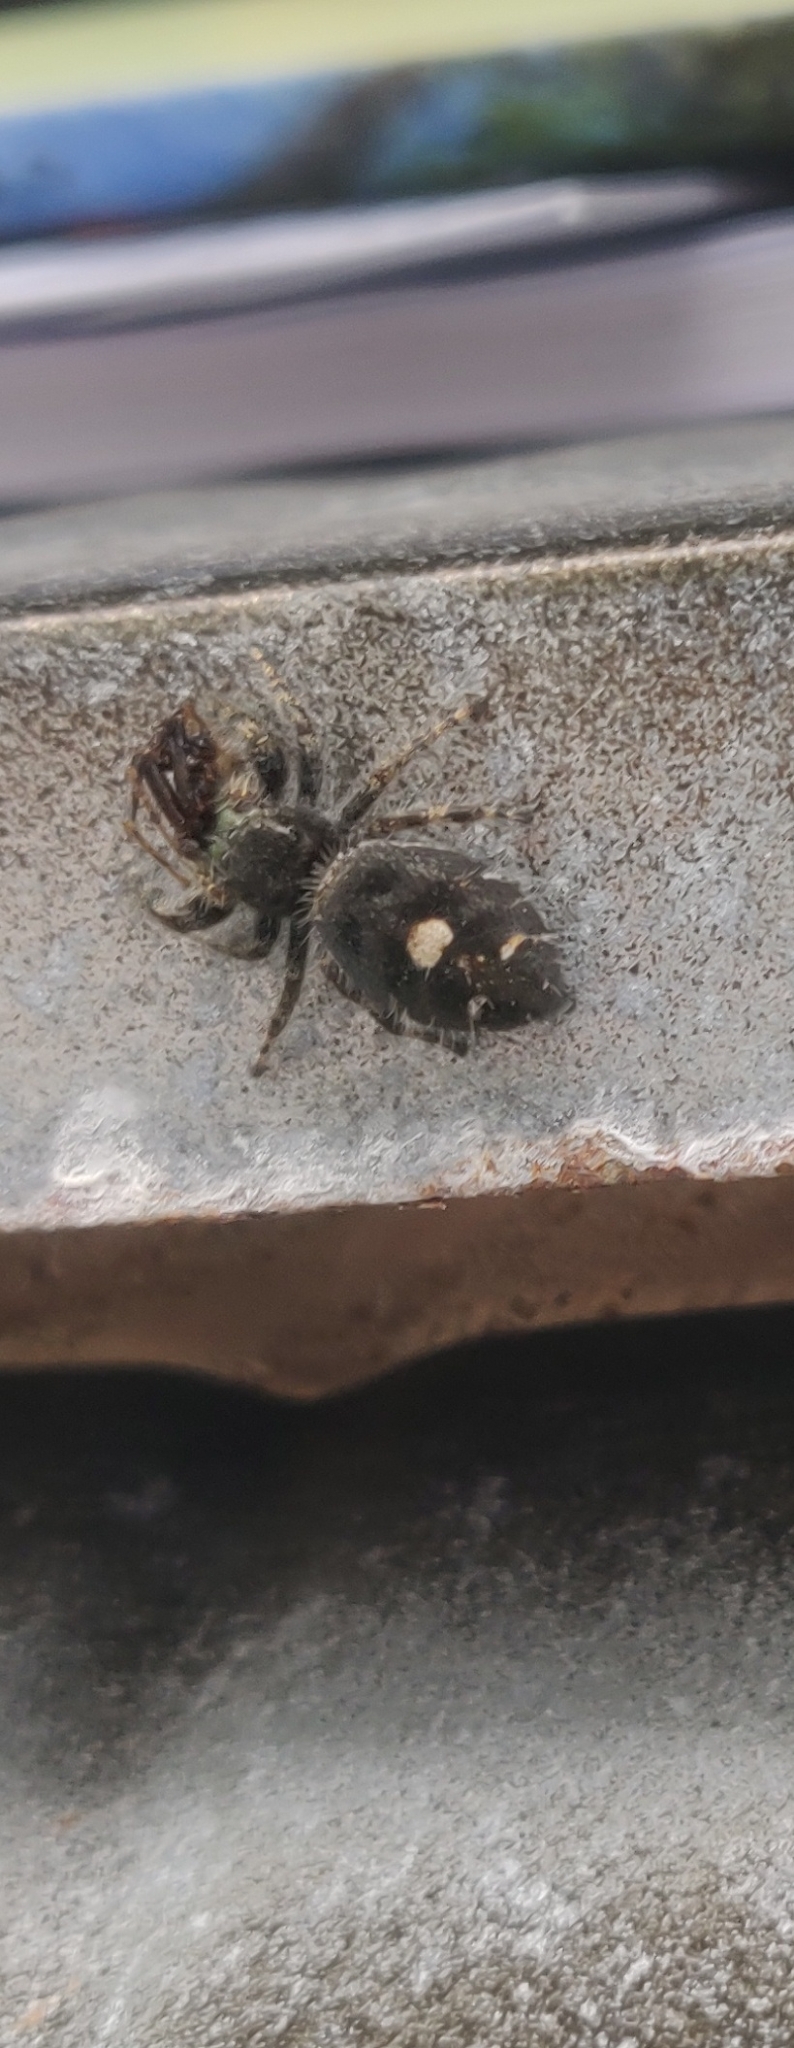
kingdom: Animalia
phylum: Arthropoda
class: Arachnida
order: Araneae
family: Salticidae
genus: Phidippus
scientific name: Phidippus audax
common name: Bold jumper
